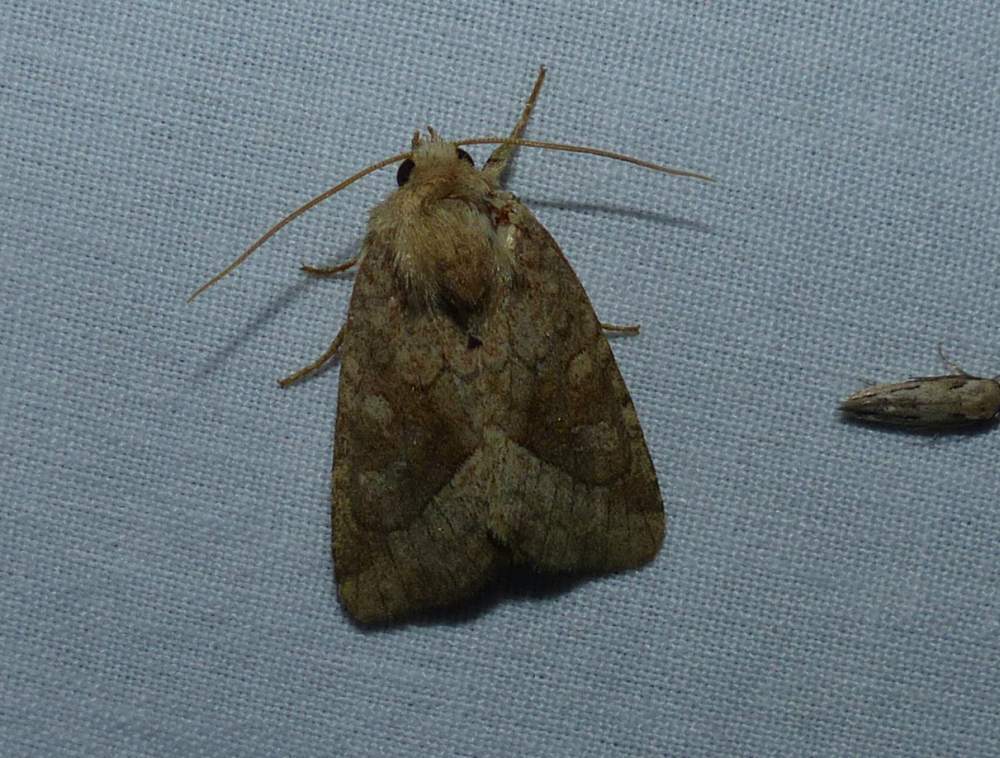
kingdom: Animalia
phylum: Arthropoda
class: Insecta
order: Lepidoptera
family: Noctuidae
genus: Lacinipolia
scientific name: Lacinipolia lorea
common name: Bridled arches moth
